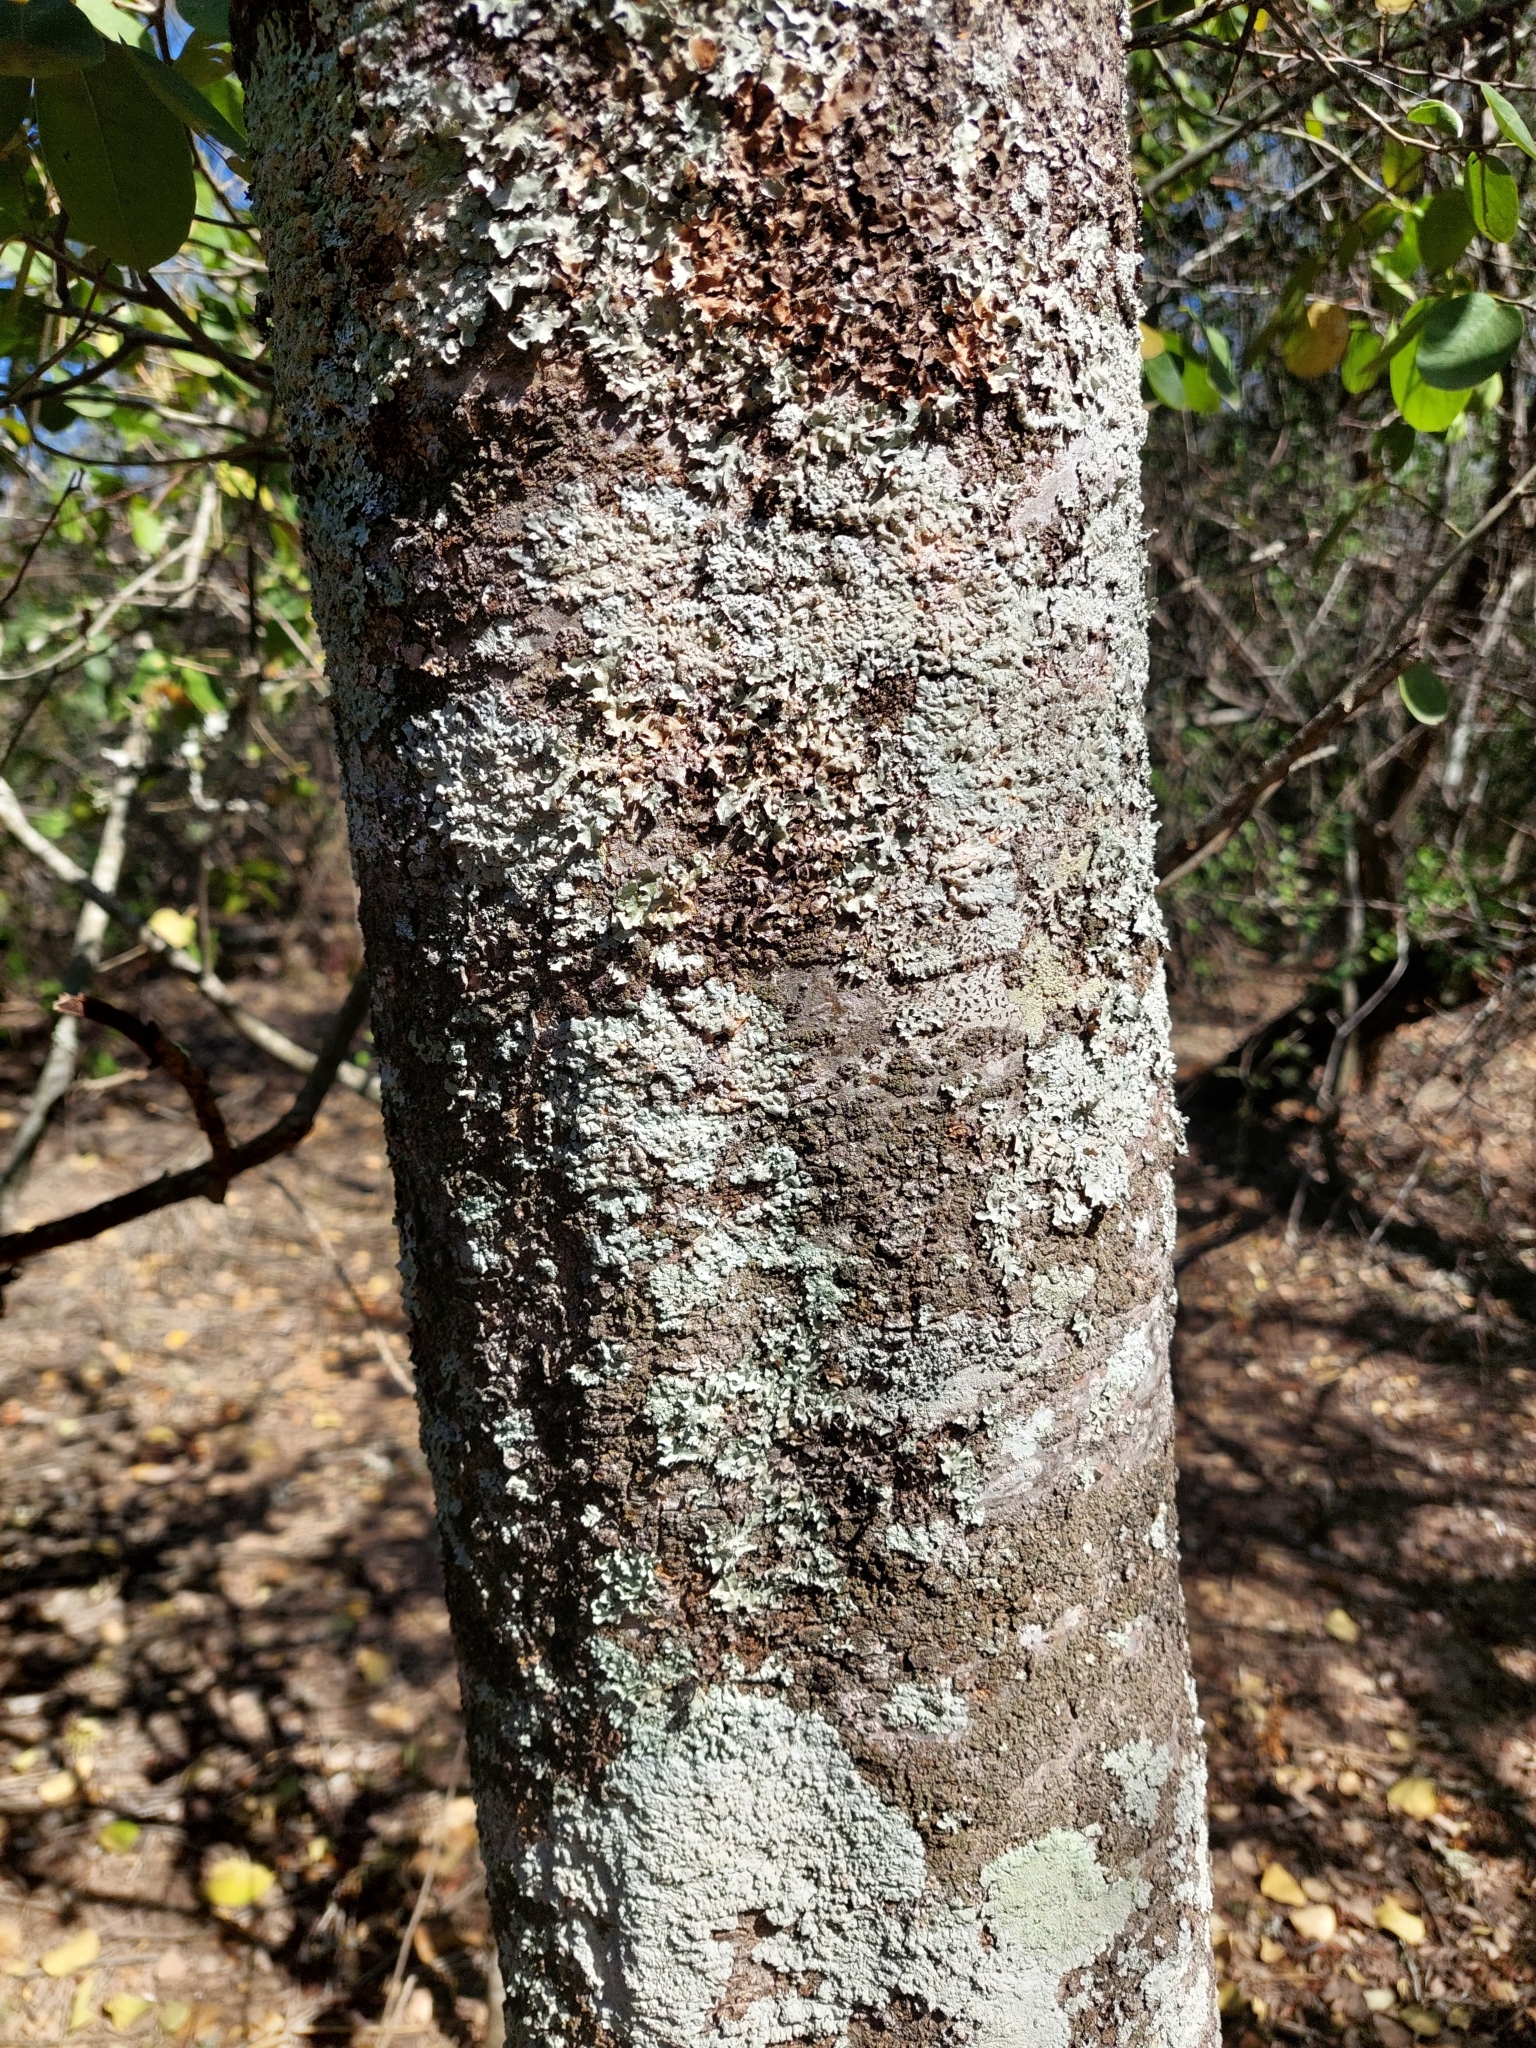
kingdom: Plantae
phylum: Tracheophyta
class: Magnoliopsida
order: Gentianales
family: Apocynaceae
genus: Aspidosperma
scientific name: Aspidosperma triternatum
